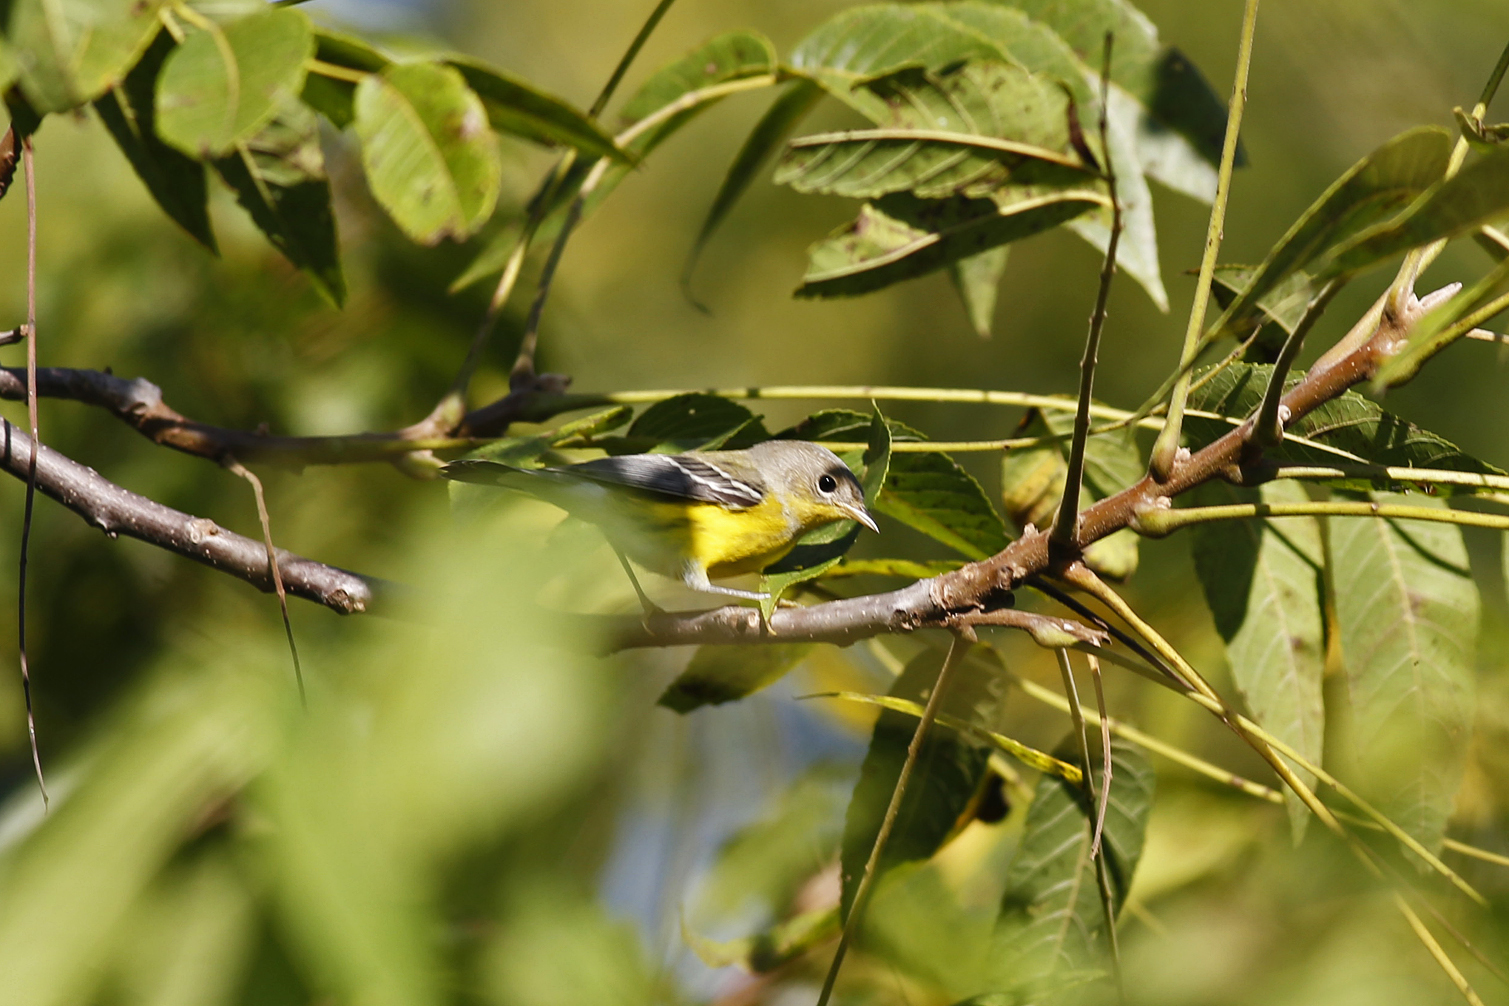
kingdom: Animalia
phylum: Chordata
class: Aves
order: Passeriformes
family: Parulidae
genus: Setophaga
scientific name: Setophaga magnolia
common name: Magnolia warbler
